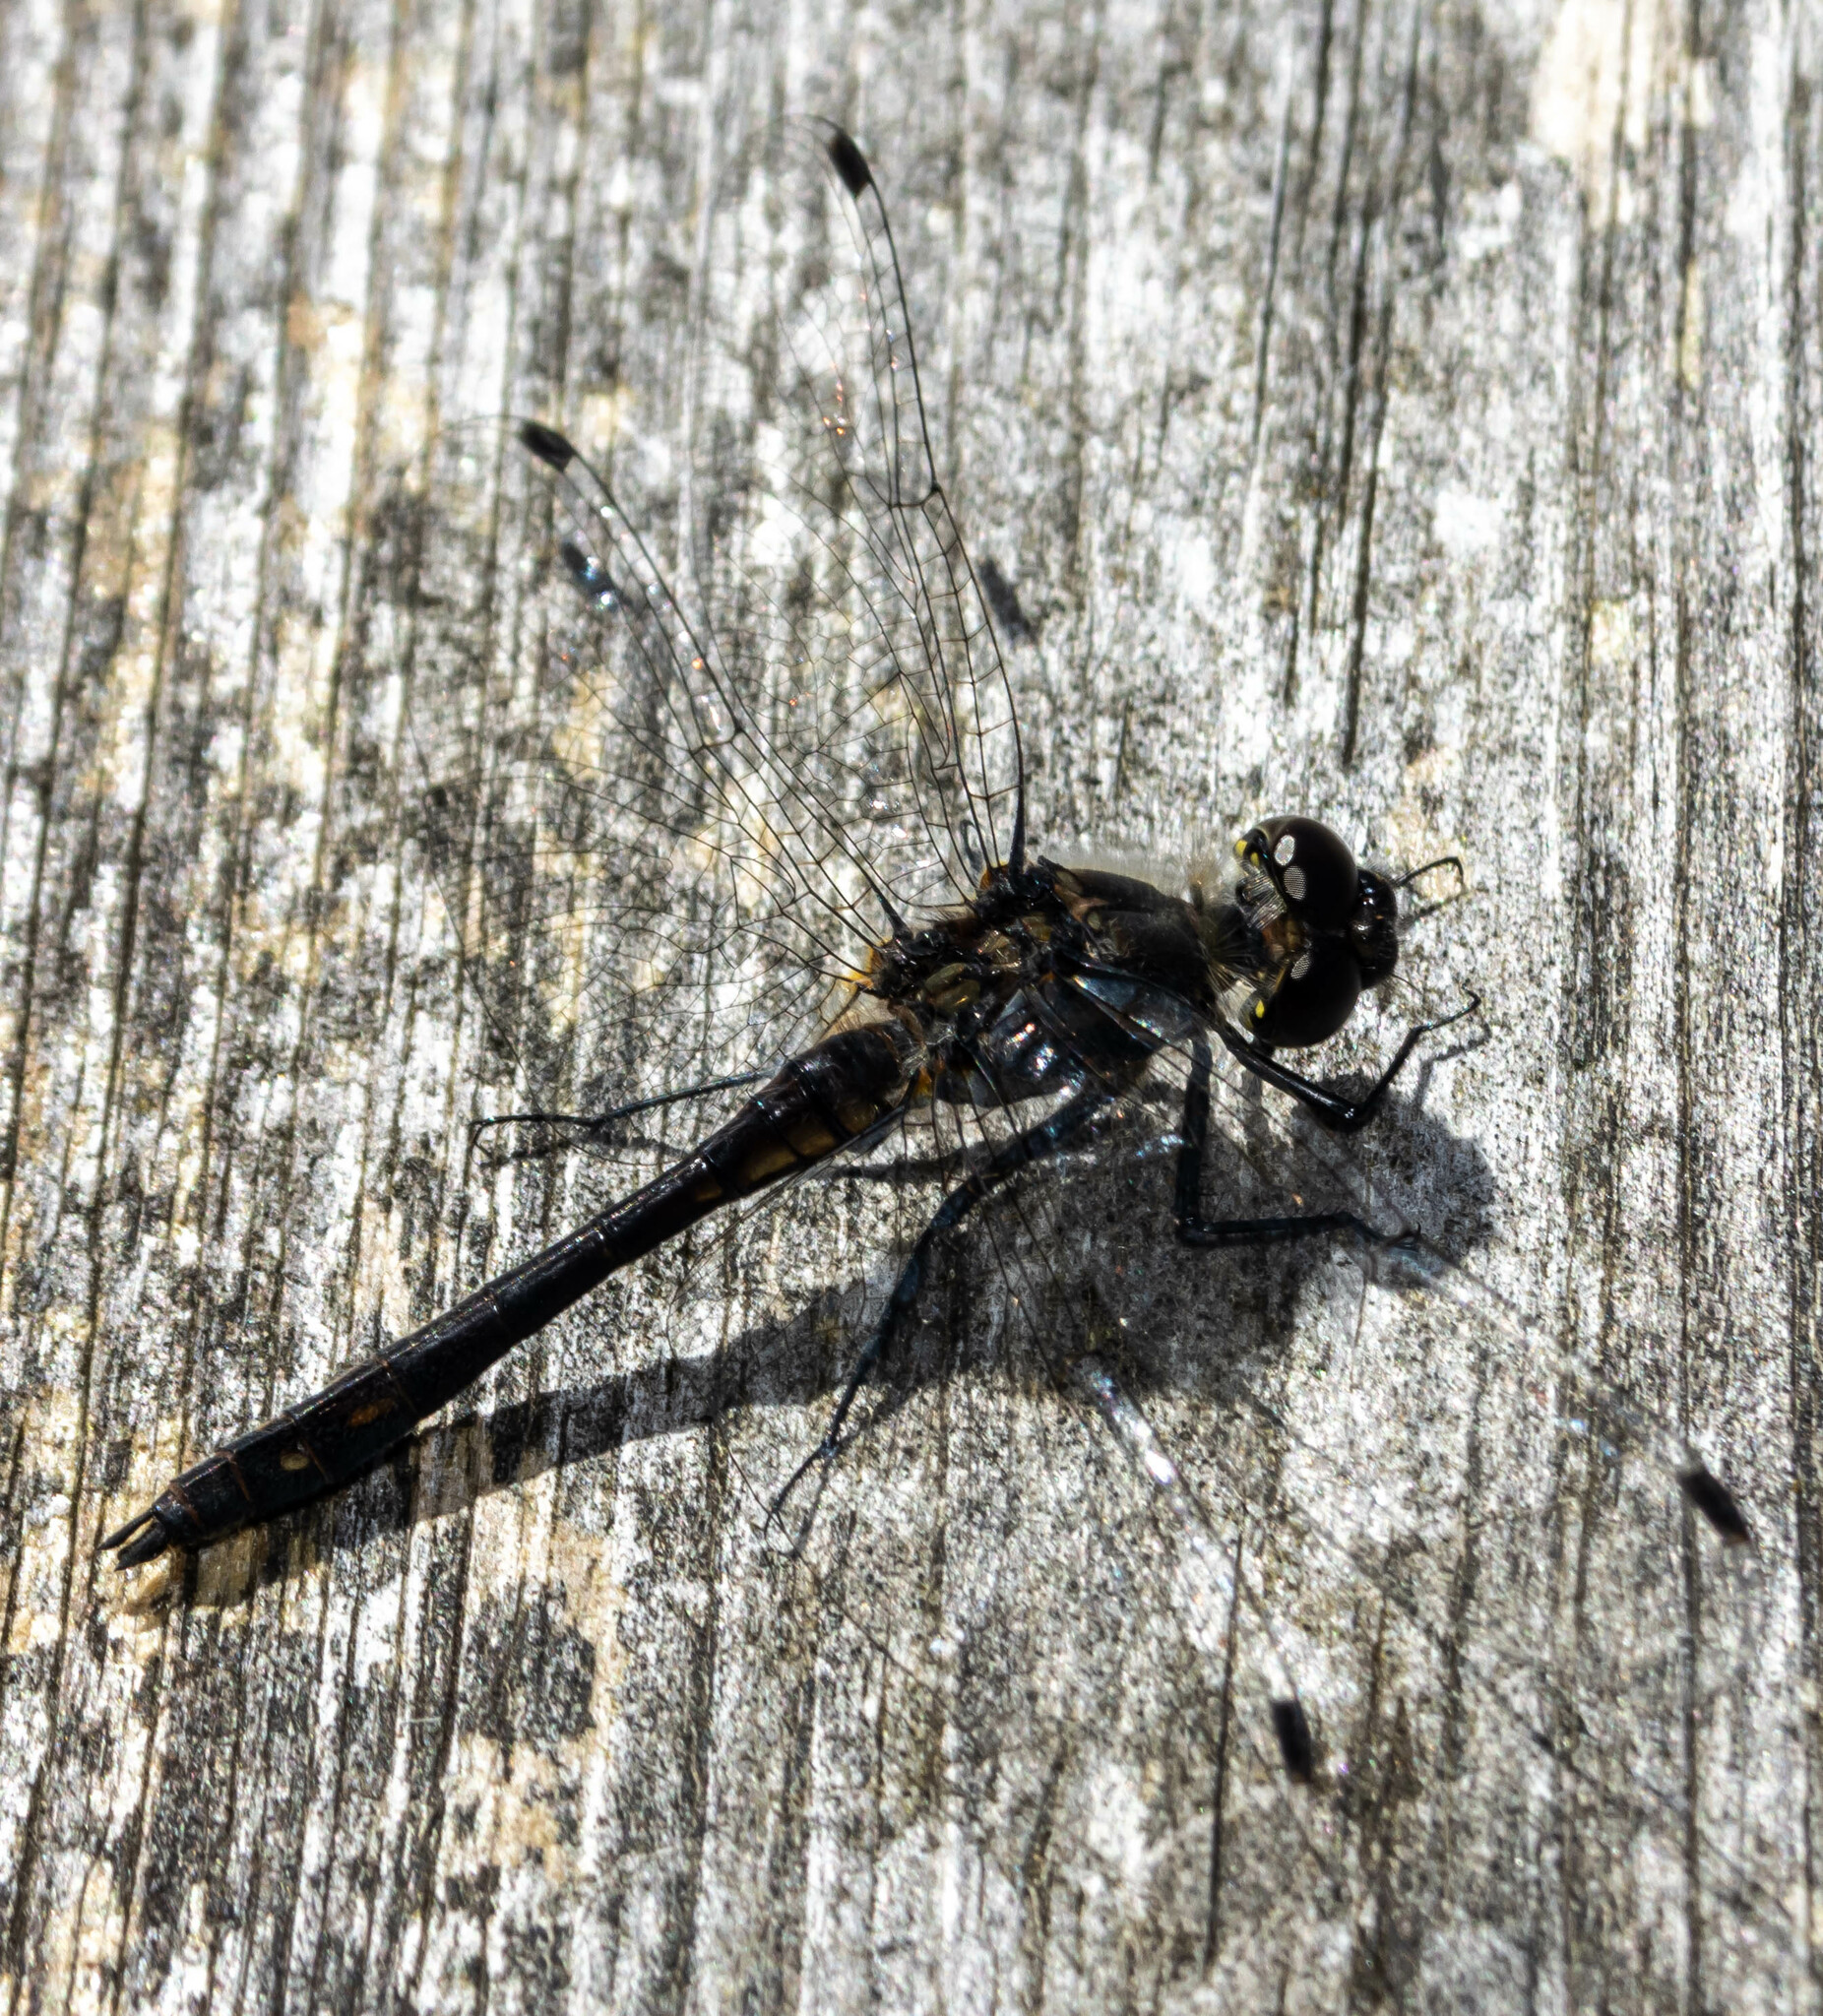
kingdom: Animalia
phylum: Arthropoda
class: Insecta
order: Odonata
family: Libellulidae
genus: Sympetrum
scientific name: Sympetrum danae
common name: Black darter
